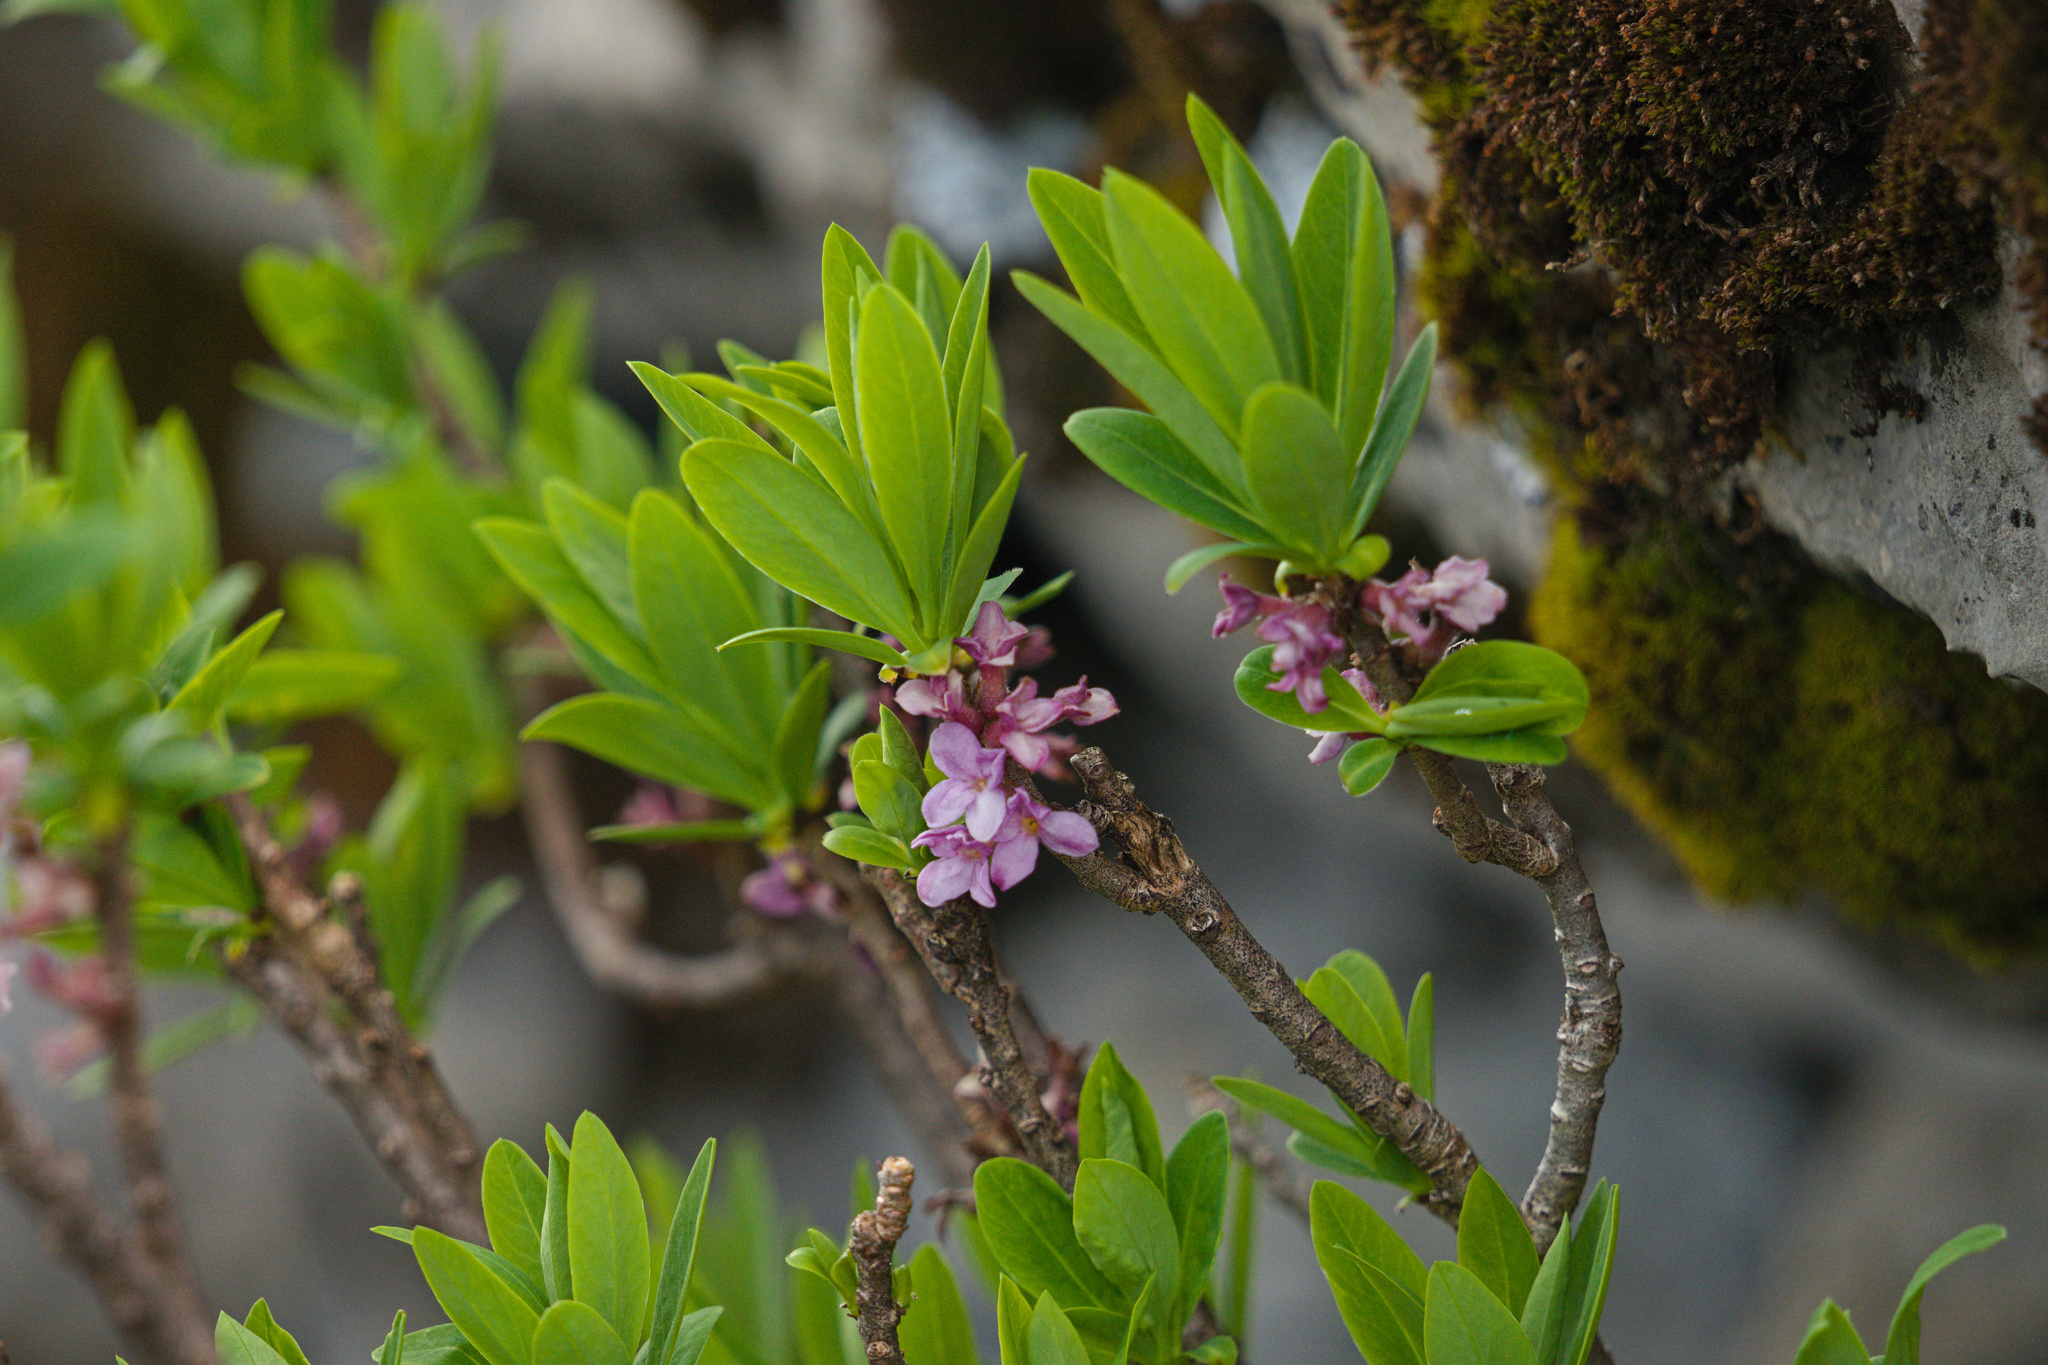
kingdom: Plantae
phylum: Tracheophyta
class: Magnoliopsida
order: Malvales
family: Thymelaeaceae
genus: Daphne
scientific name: Daphne mezereum
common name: Mezereon
